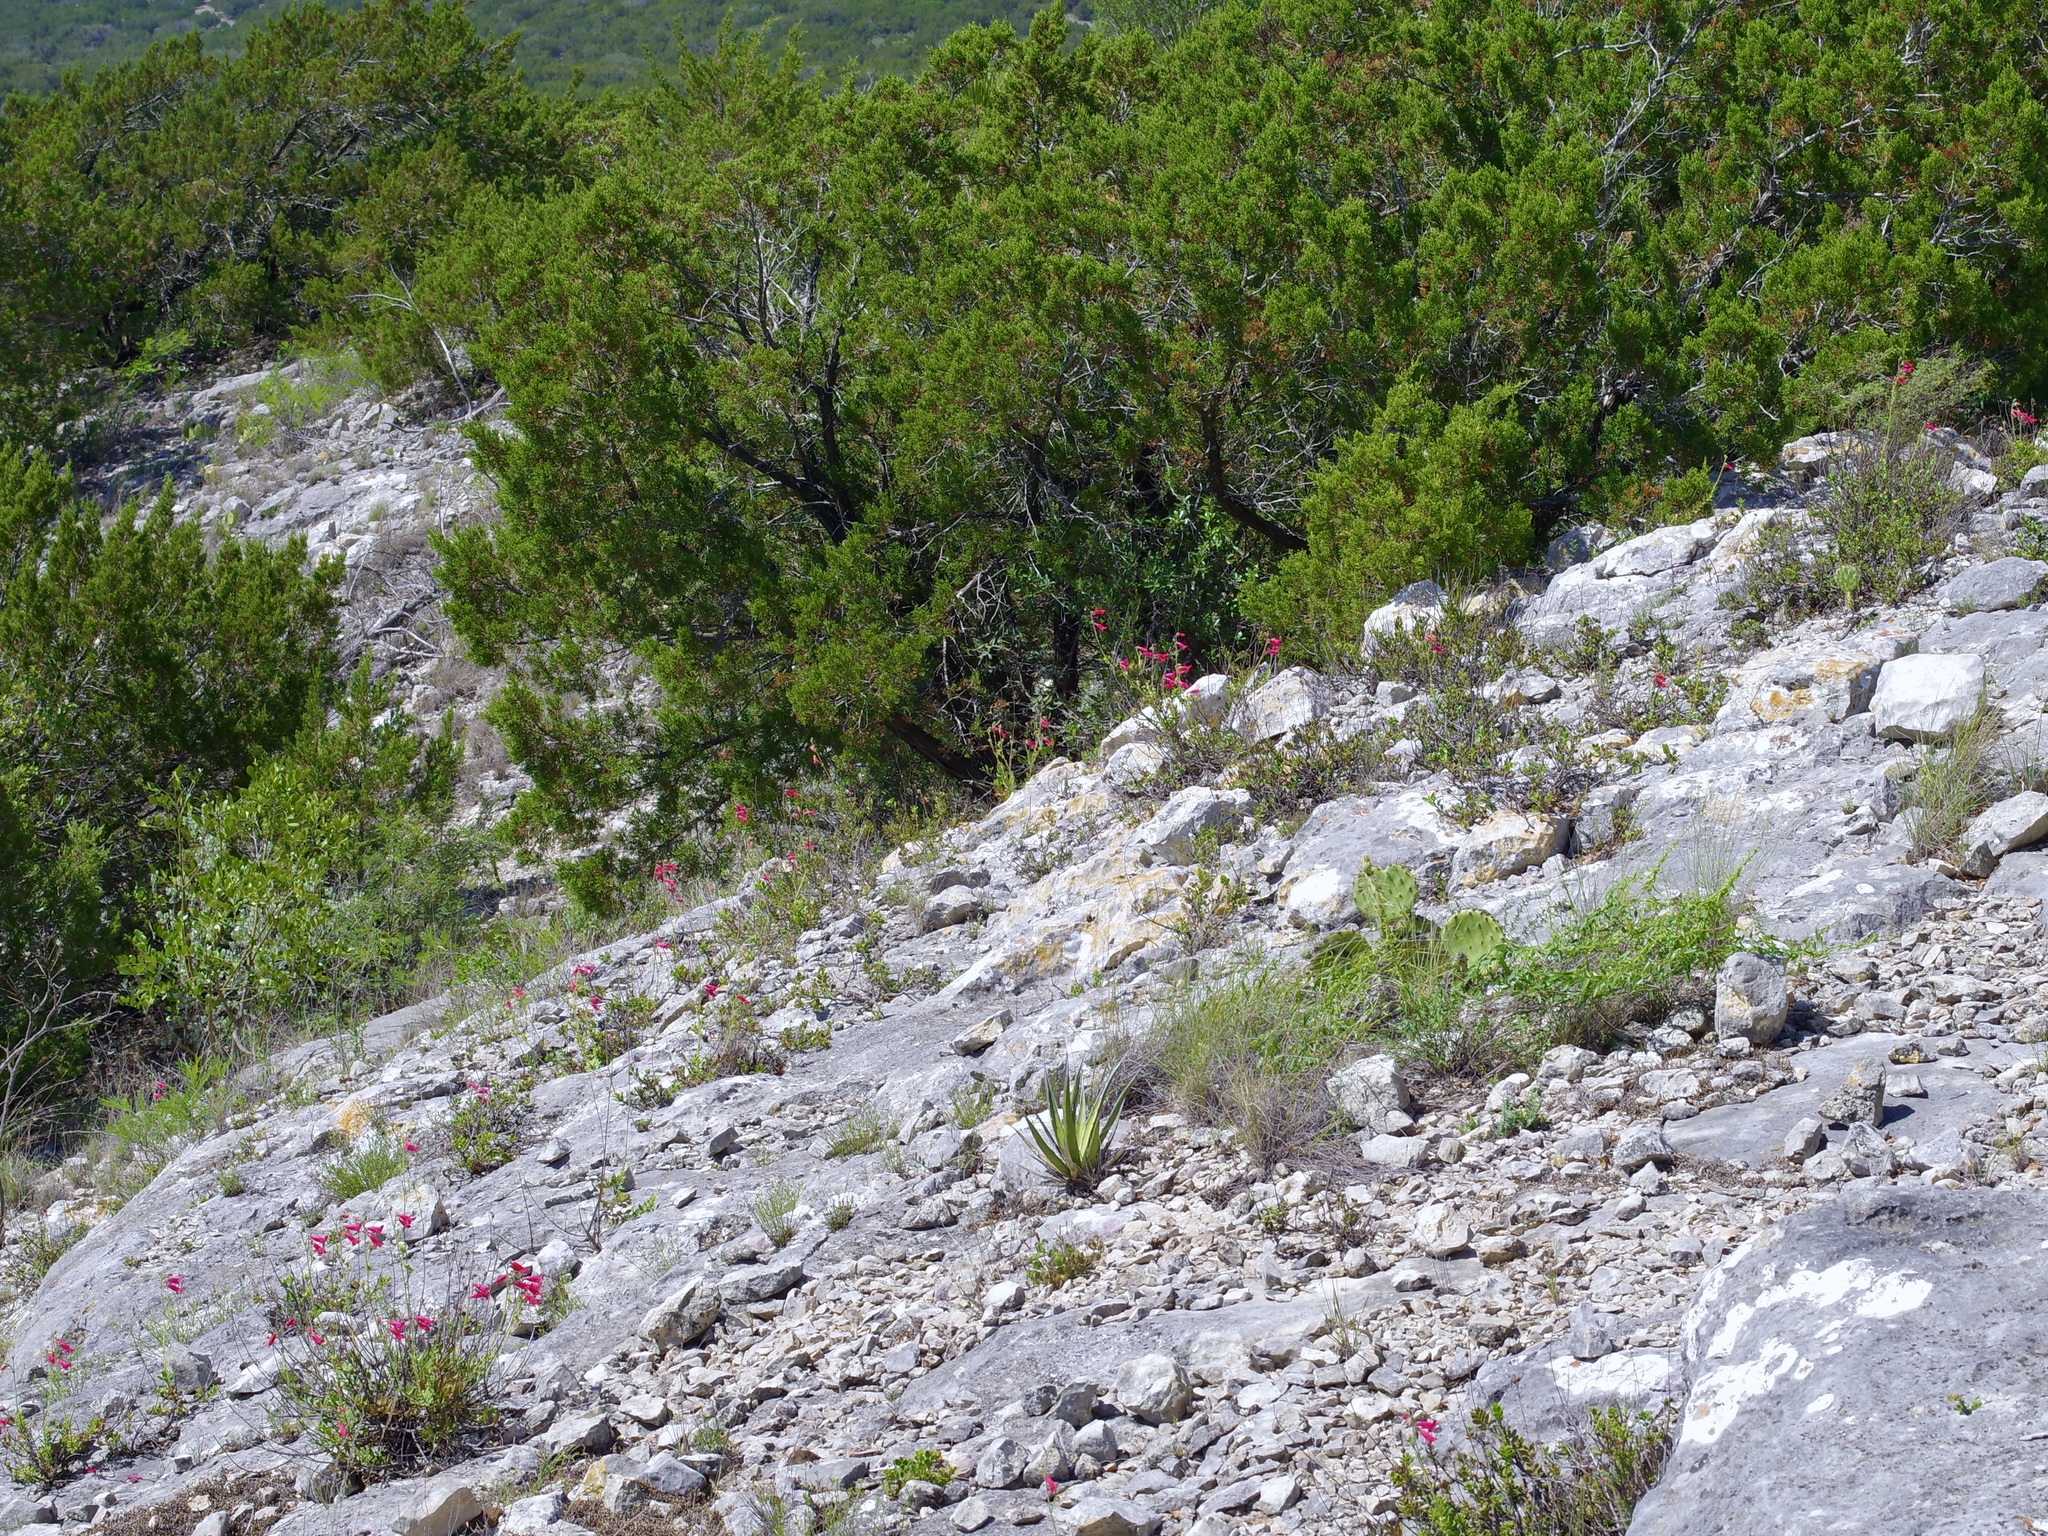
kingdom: Plantae
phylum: Tracheophyta
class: Magnoliopsida
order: Lamiales
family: Plantaginaceae
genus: Penstemon
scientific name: Penstemon baccharifolius
